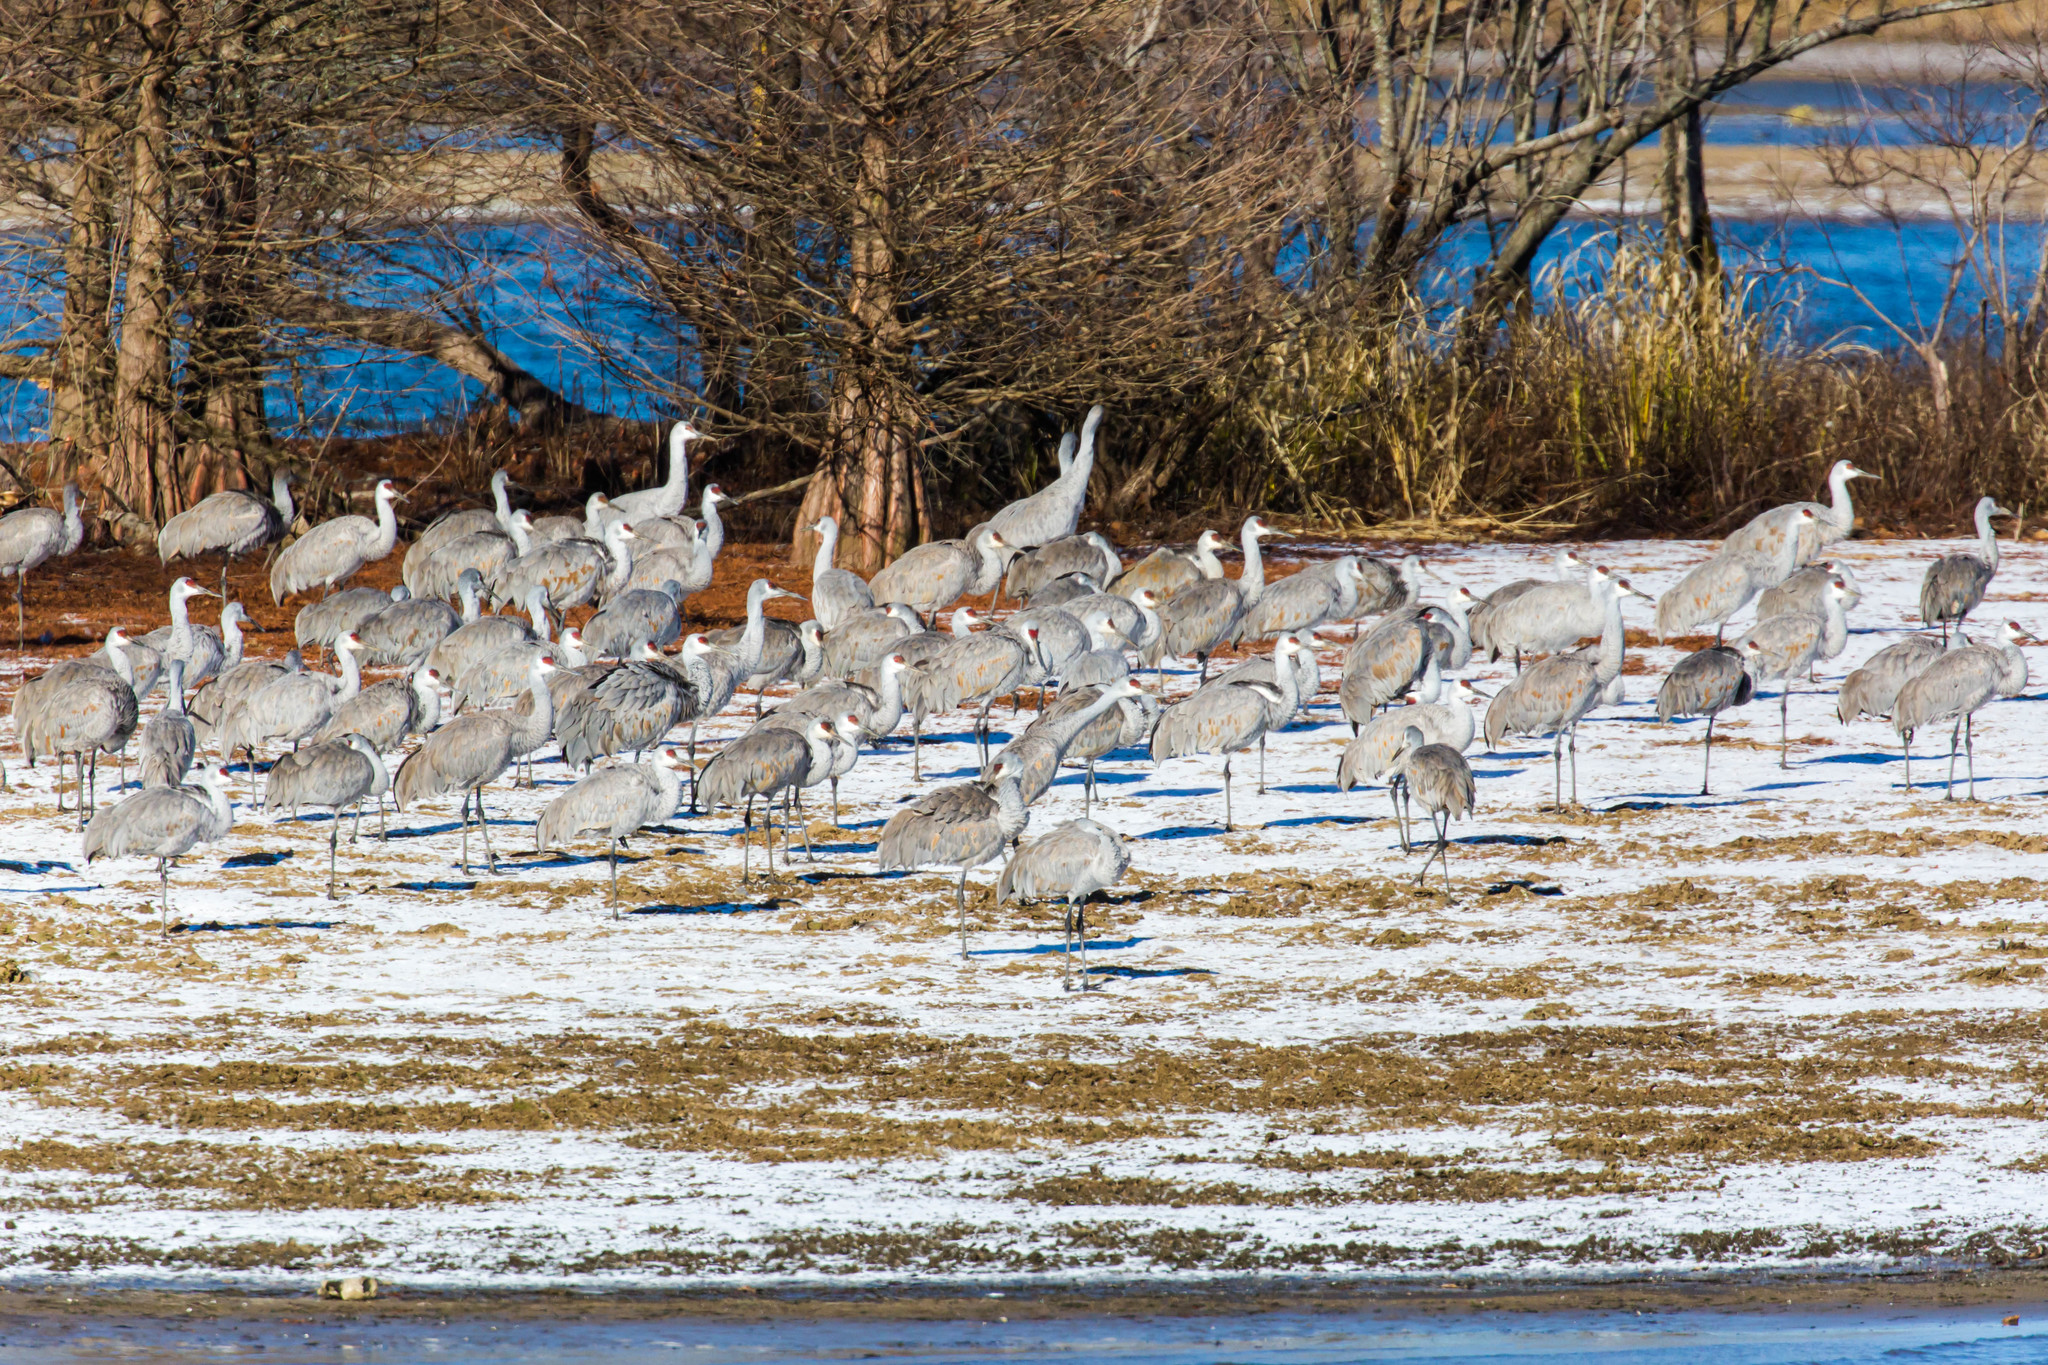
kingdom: Animalia
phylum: Chordata
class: Aves
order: Gruiformes
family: Gruidae
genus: Grus
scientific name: Grus canadensis
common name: Sandhill crane
